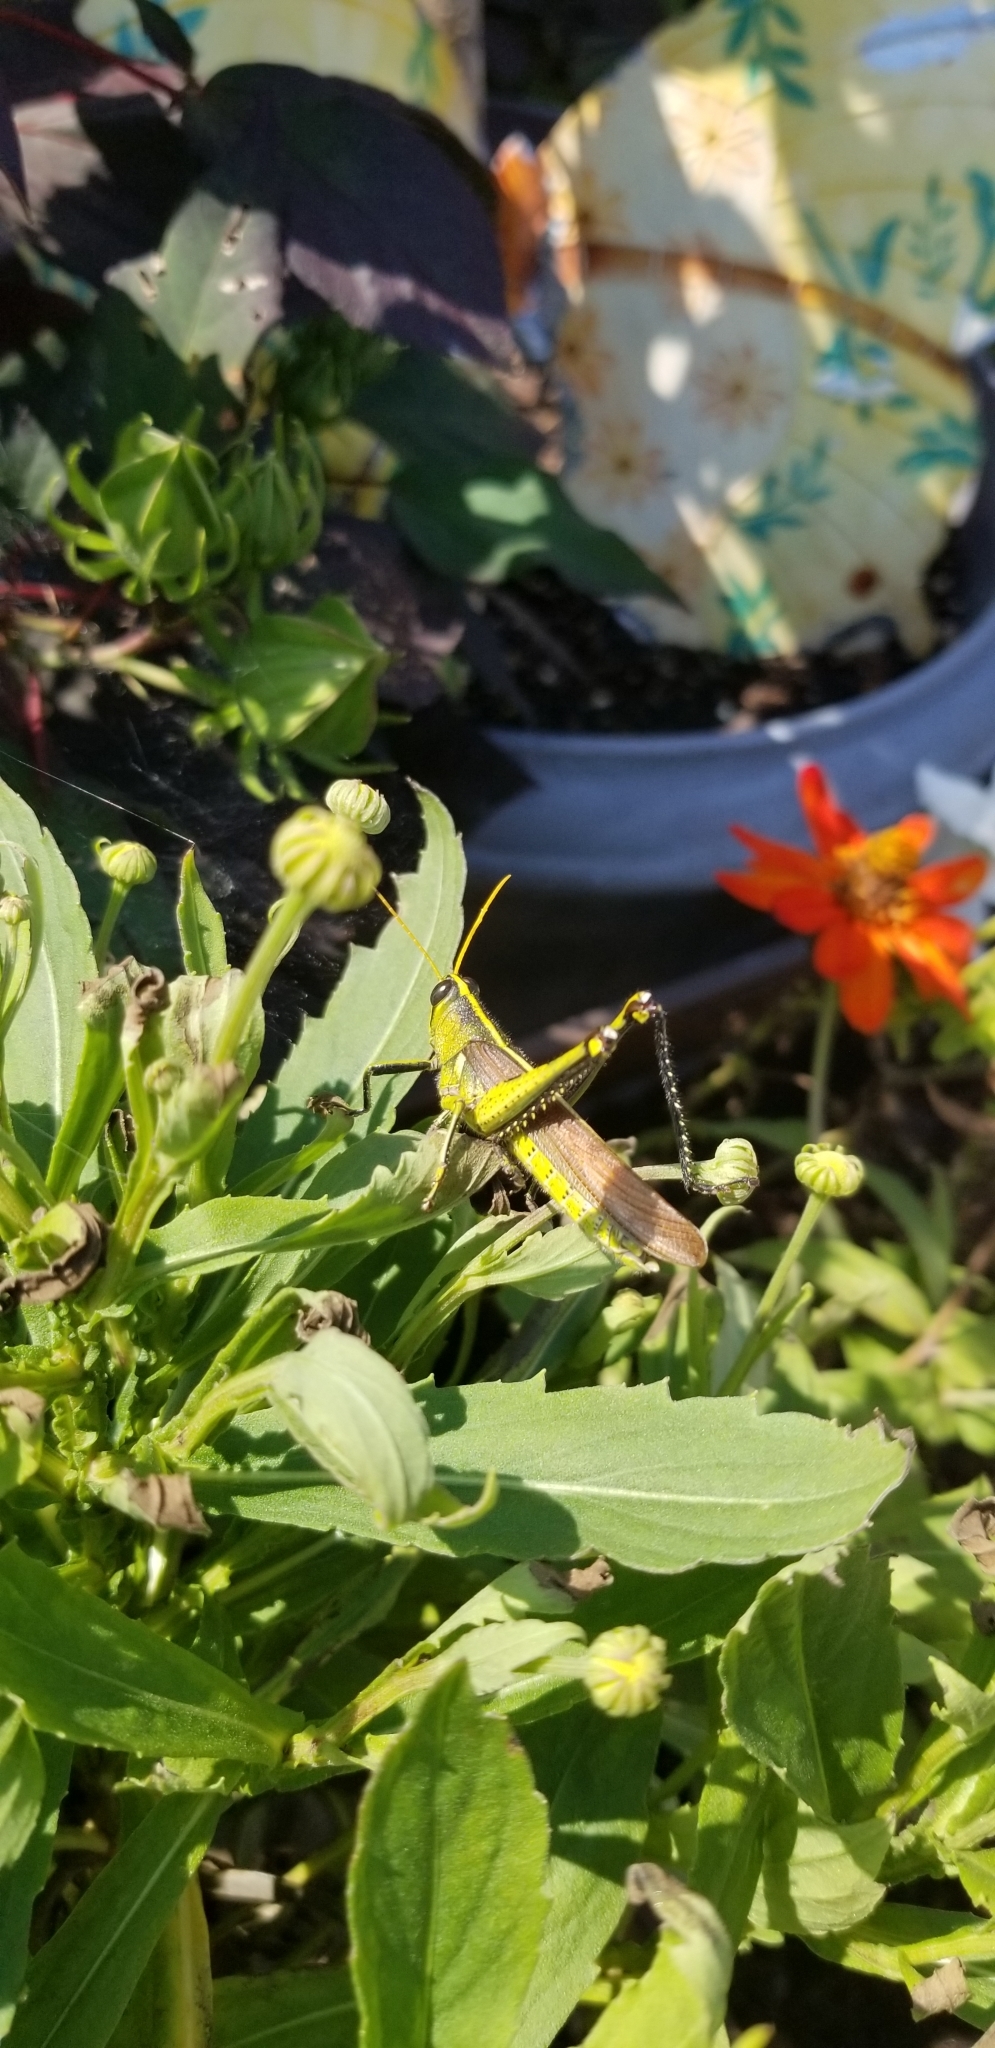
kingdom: Animalia
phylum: Arthropoda
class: Insecta
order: Orthoptera
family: Acrididae
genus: Schistocerca
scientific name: Schistocerca obscura
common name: Obscure bird grasshopper
